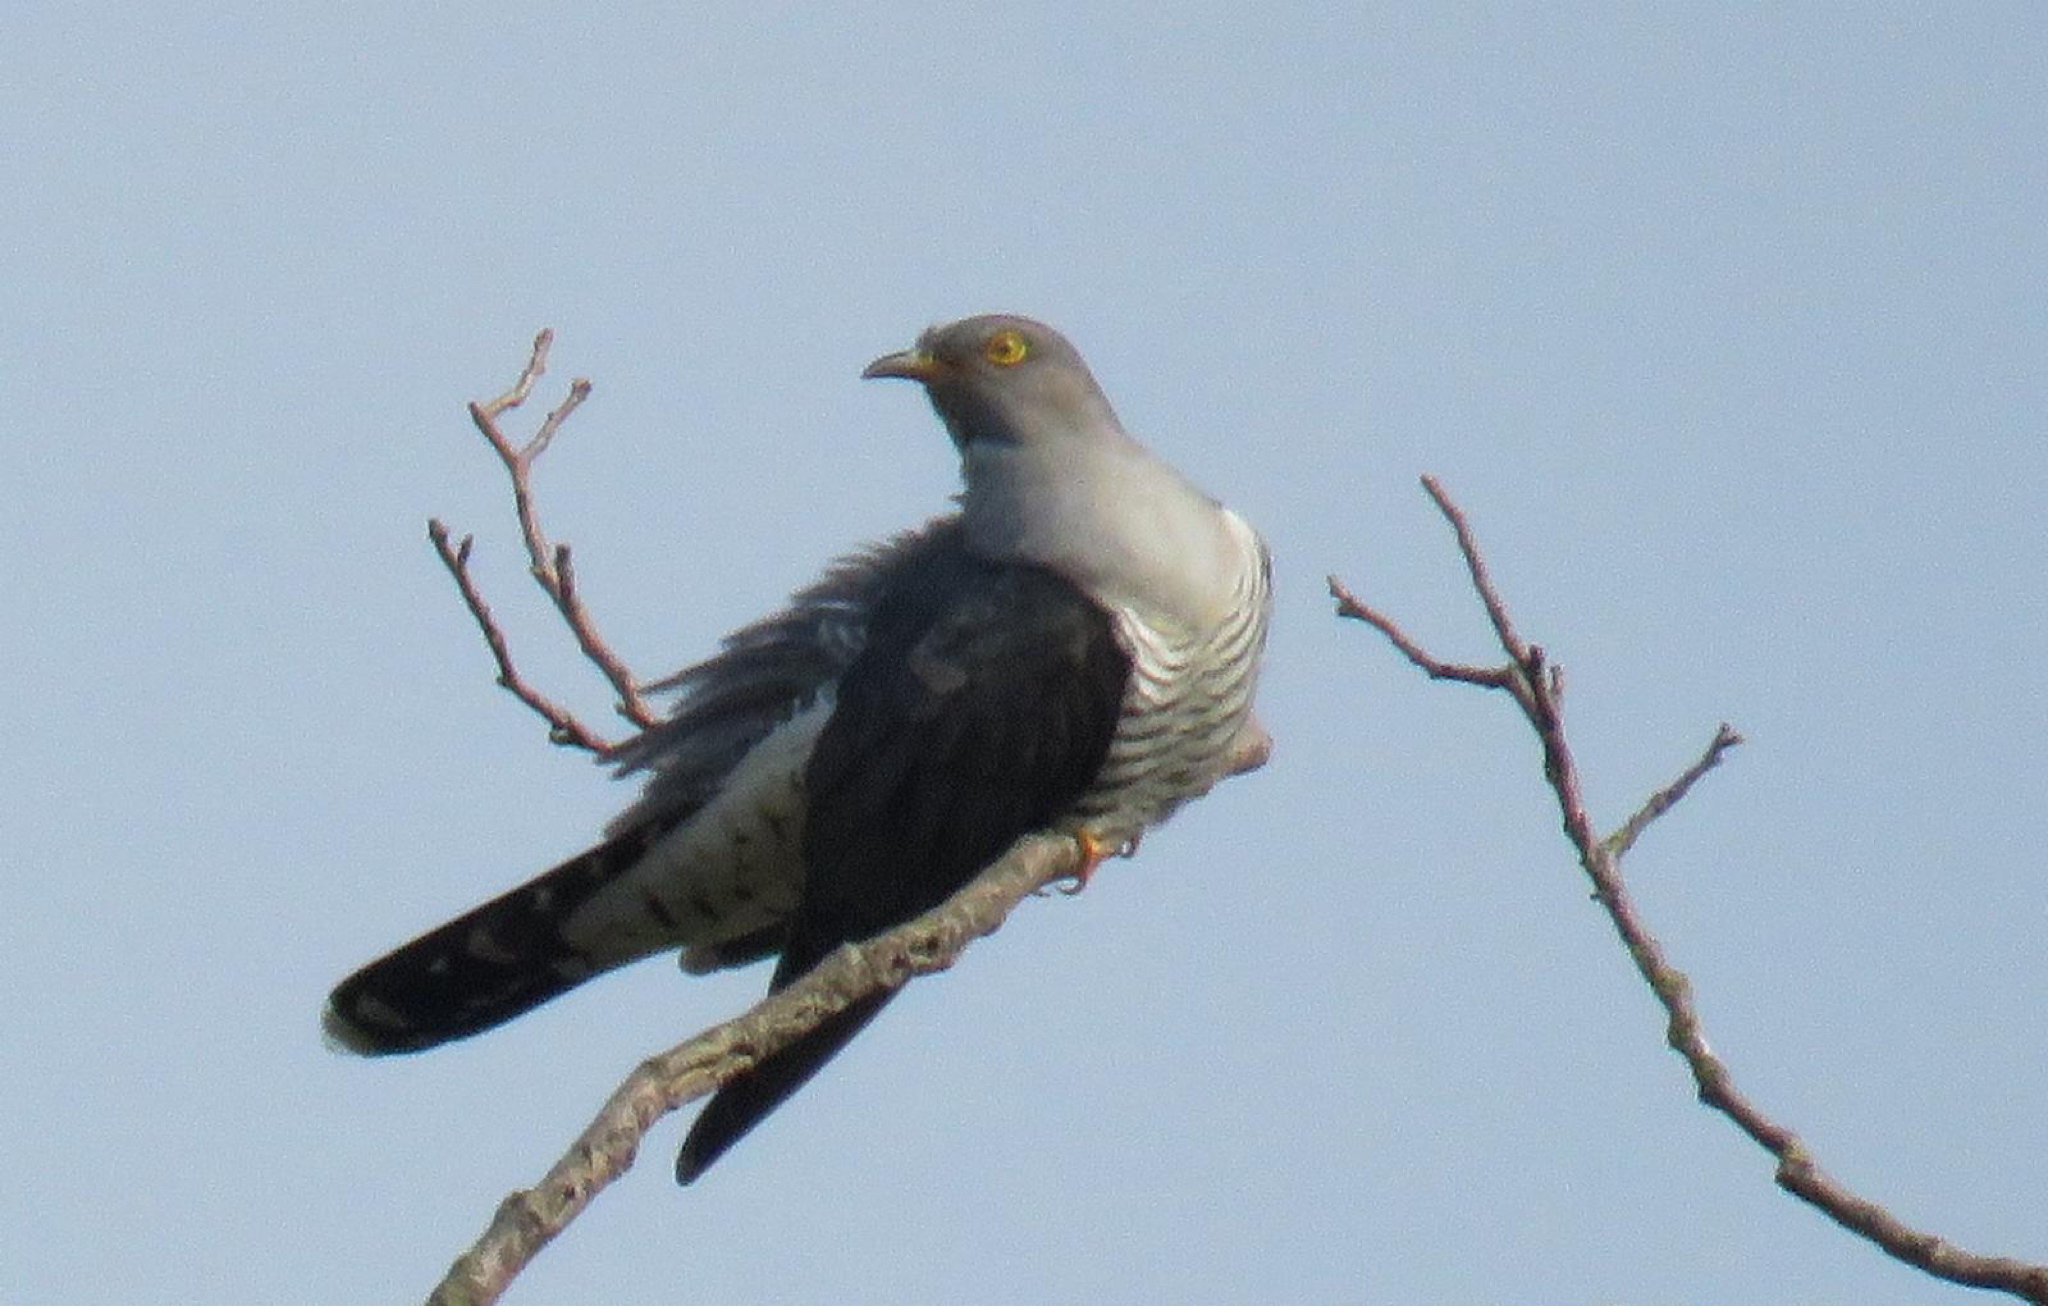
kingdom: Animalia
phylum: Chordata
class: Aves
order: Cuculiformes
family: Cuculidae
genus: Cuculus
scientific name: Cuculus canorus
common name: Common cuckoo
